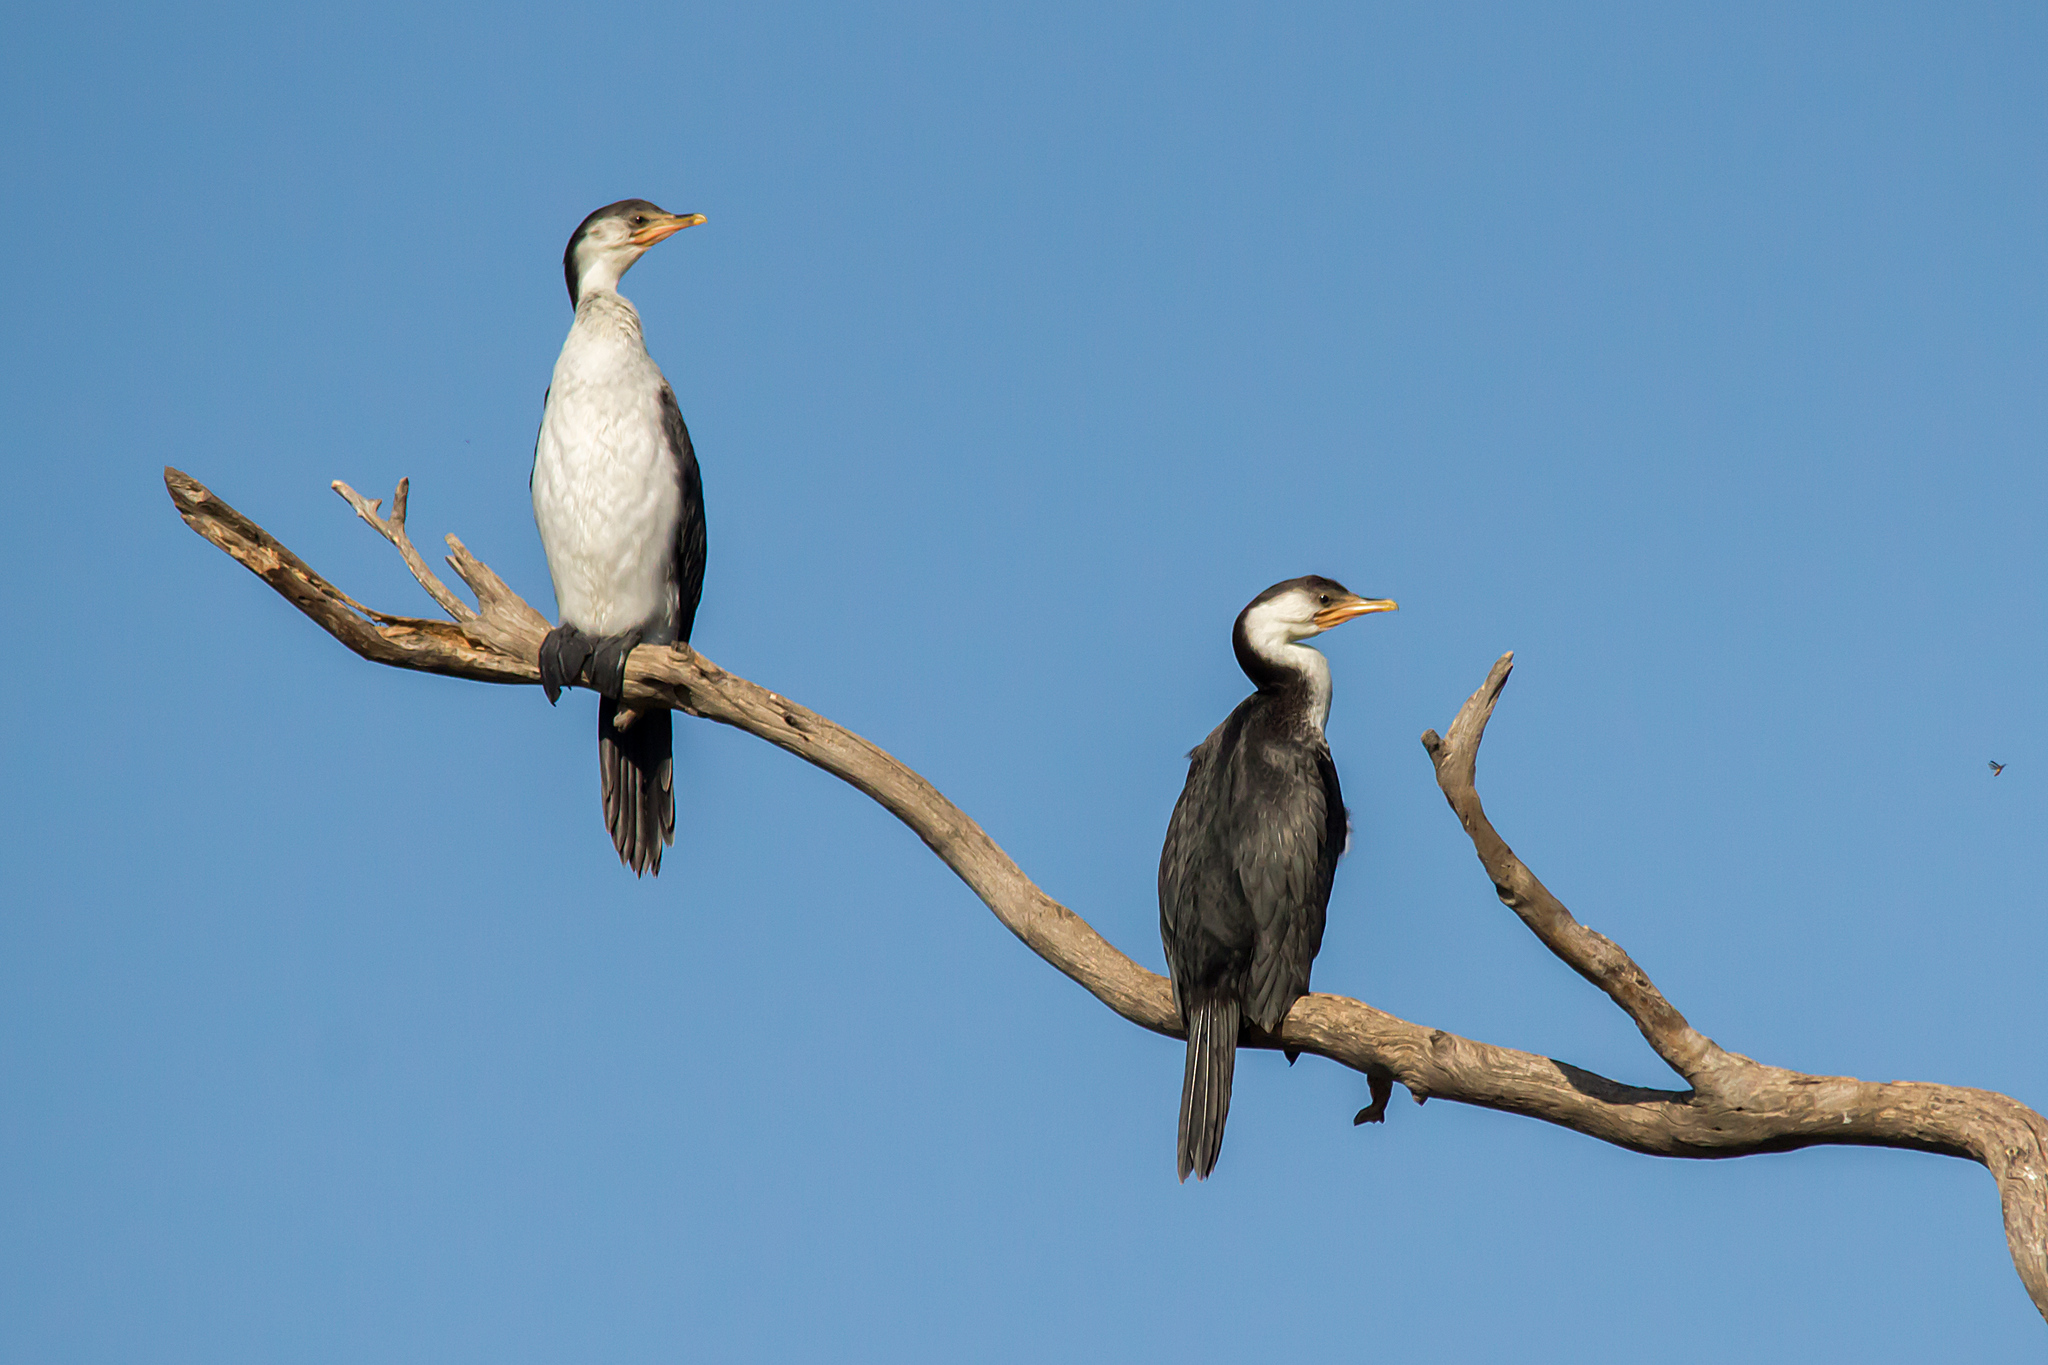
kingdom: Animalia
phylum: Chordata
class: Aves
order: Suliformes
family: Phalacrocoracidae
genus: Microcarbo
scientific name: Microcarbo melanoleucos
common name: Little pied cormorant
